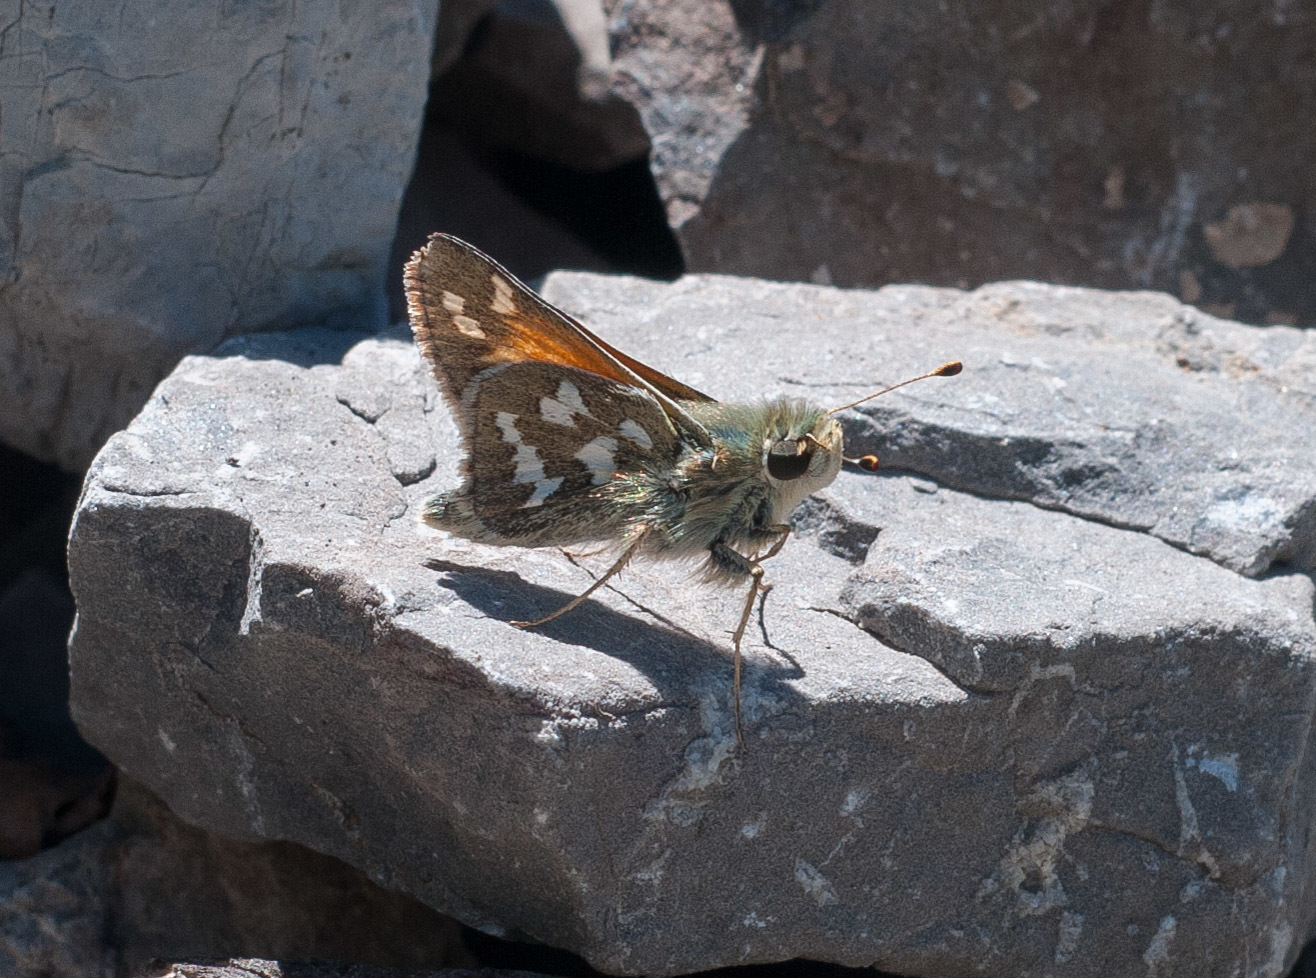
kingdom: Animalia
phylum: Arthropoda
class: Insecta
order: Lepidoptera
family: Hesperiidae
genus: Hesperia
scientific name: Hesperia juba
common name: Juba skipper
